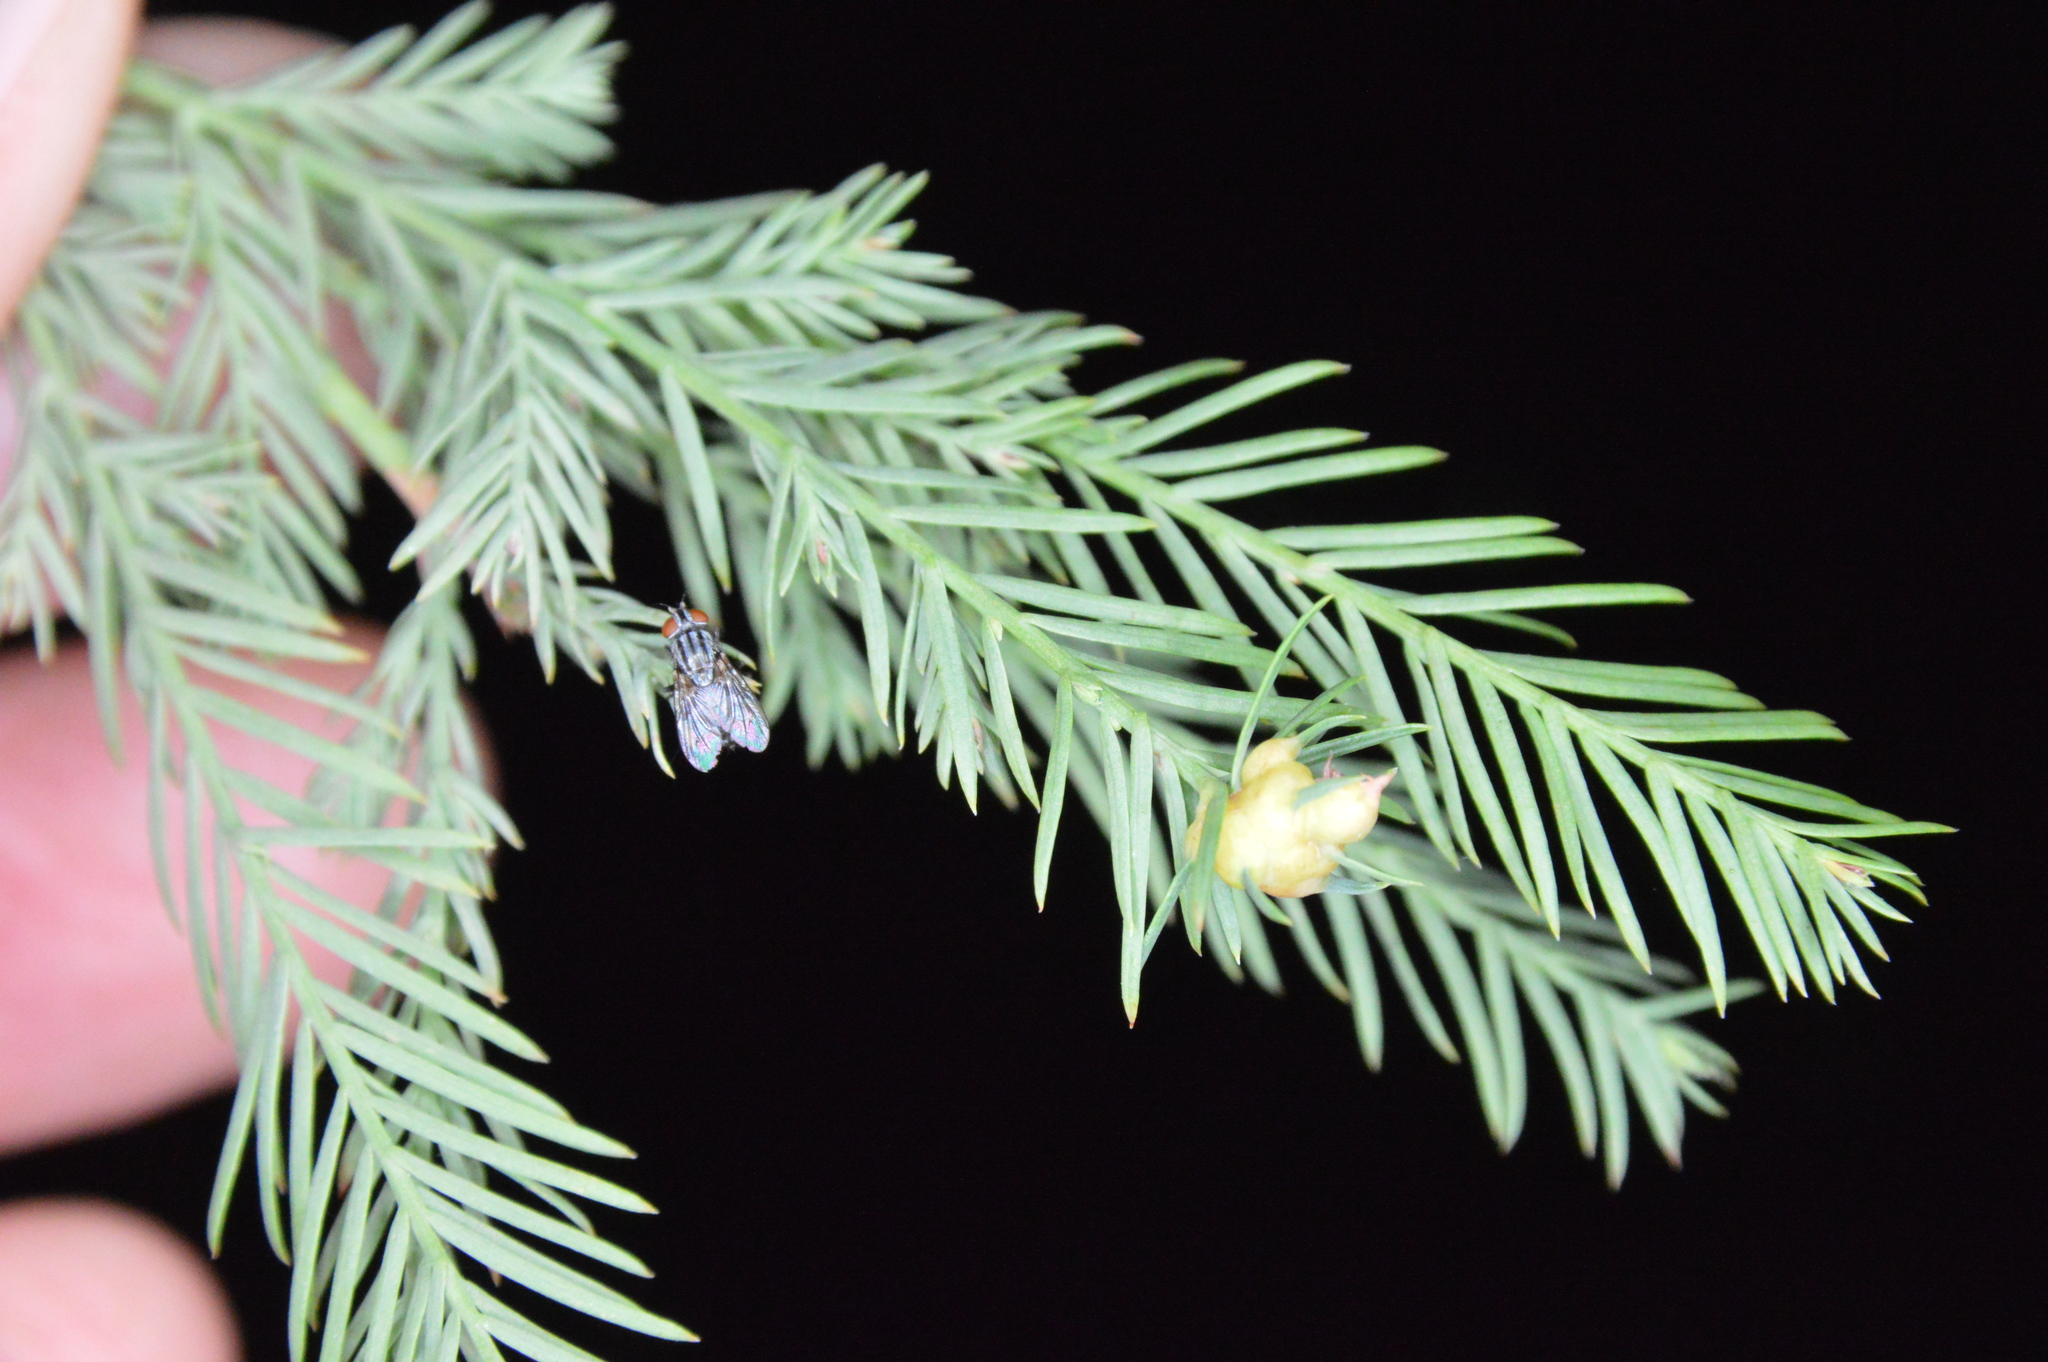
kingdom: Animalia
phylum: Arthropoda
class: Insecta
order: Diptera
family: Cecidomyiidae
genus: Taxodiomyia
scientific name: Taxodiomyia cupressiananassa
